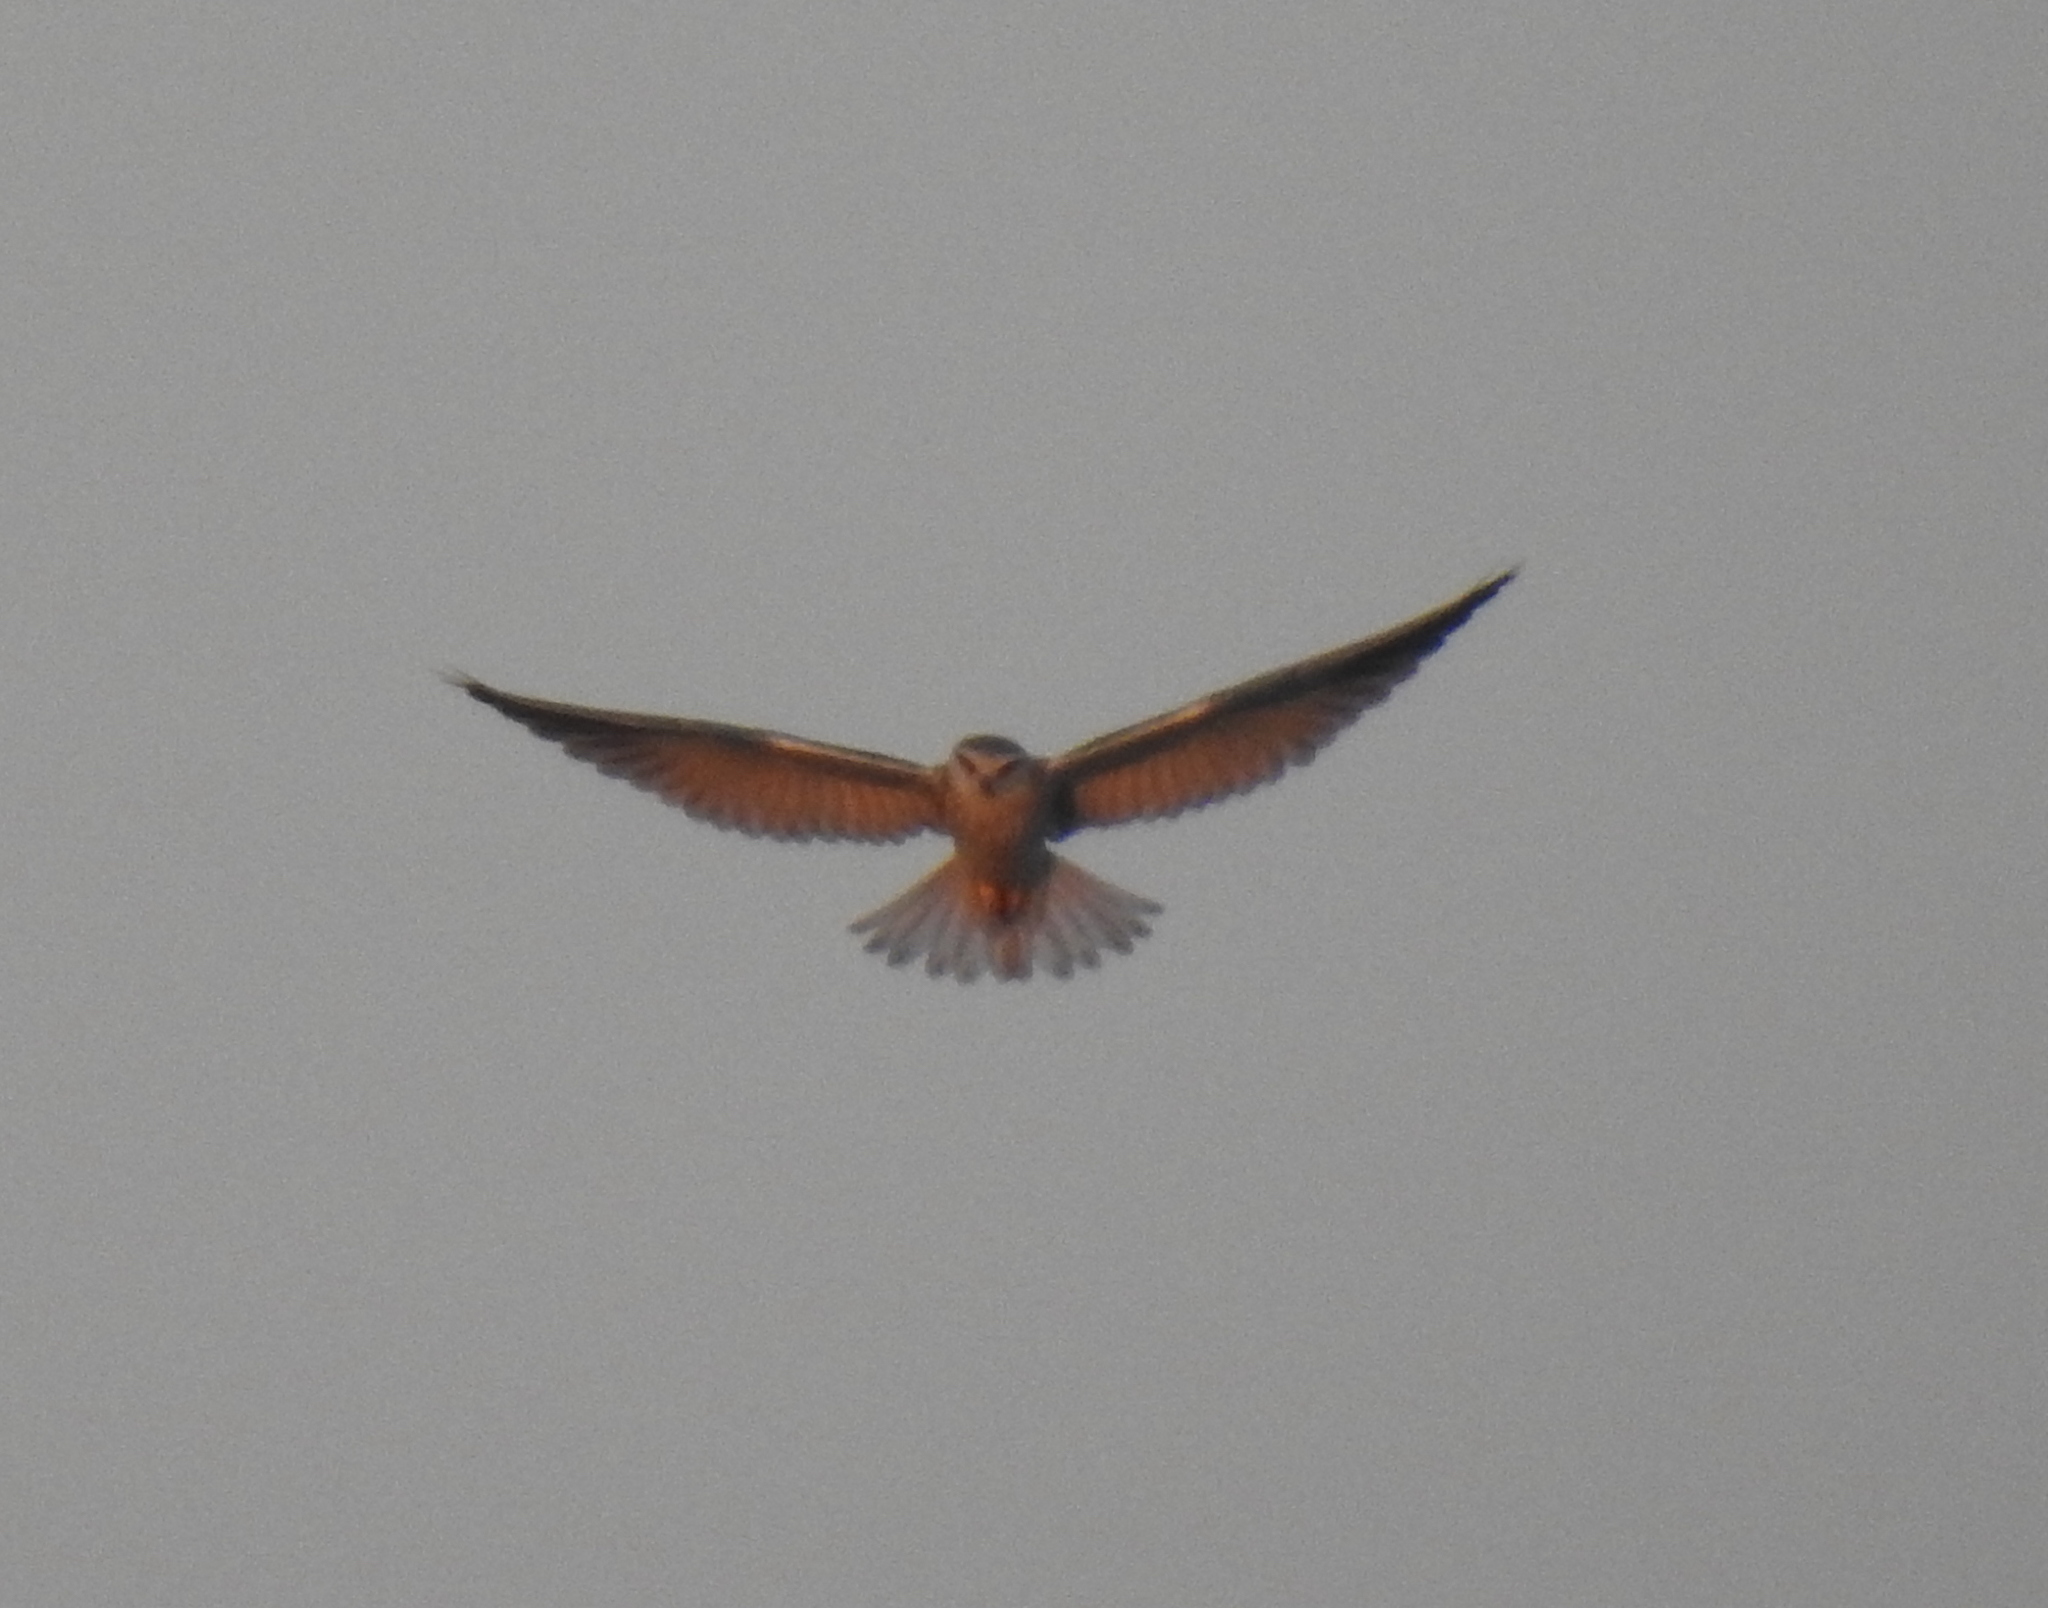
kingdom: Animalia
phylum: Chordata
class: Aves
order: Accipitriformes
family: Accipitridae
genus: Elanus
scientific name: Elanus caeruleus
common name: Black-winged kite
